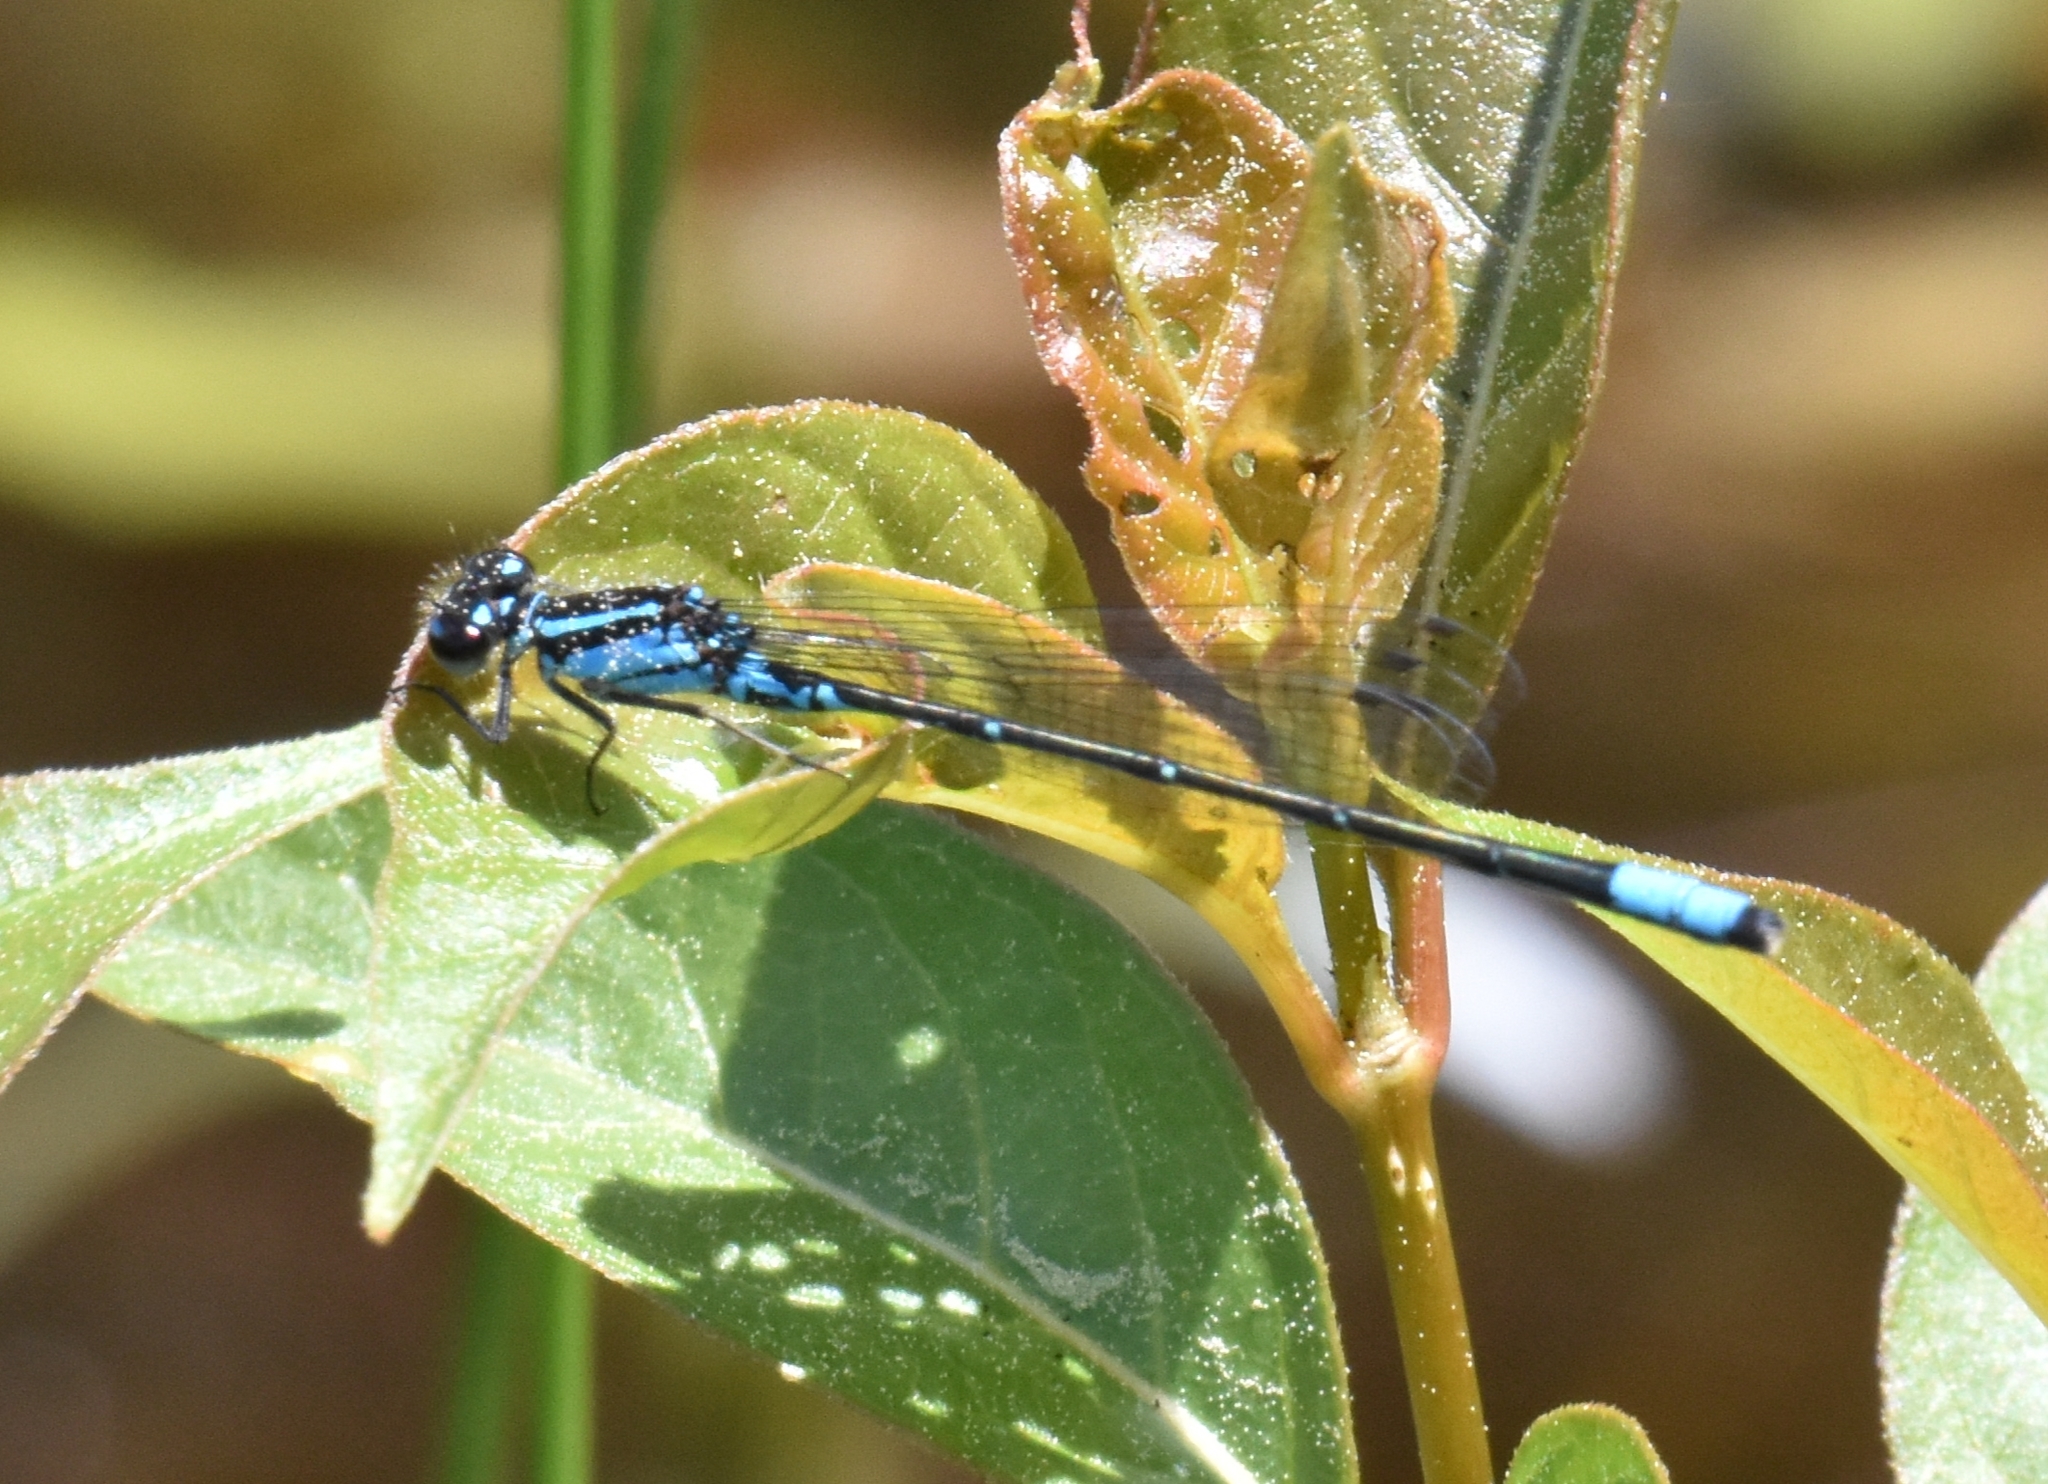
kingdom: Animalia
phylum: Arthropoda
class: Insecta
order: Odonata
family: Coenagrionidae
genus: Enallagma
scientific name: Enallagma geminatum
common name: Skimming bluet
